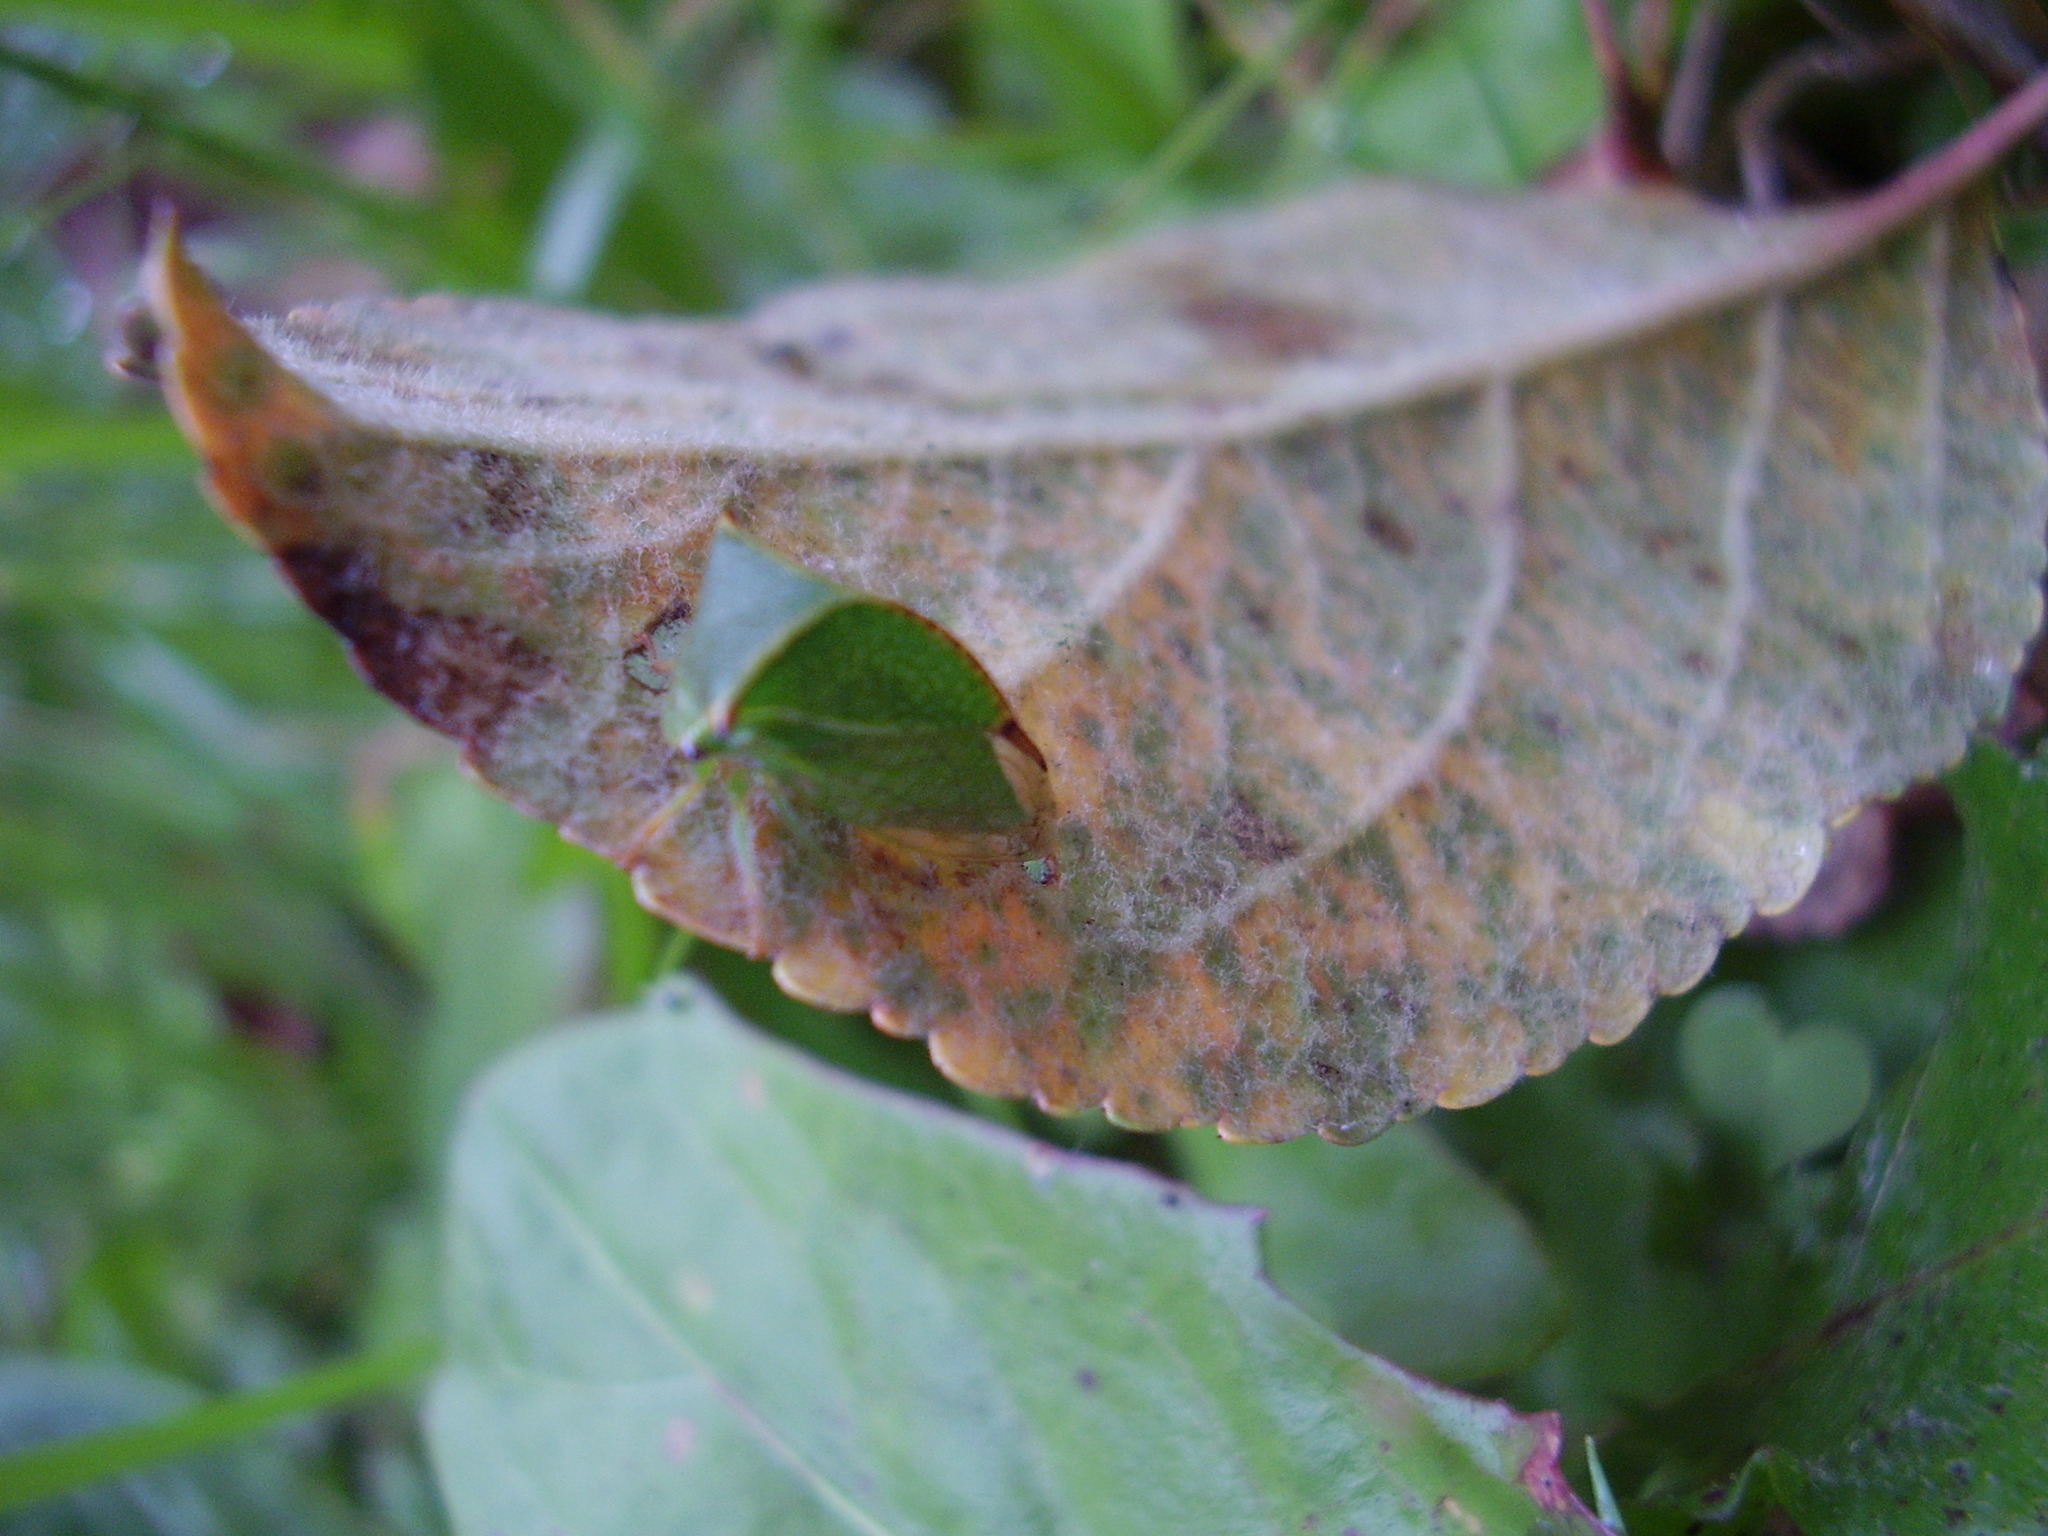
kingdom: Animalia
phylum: Arthropoda
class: Insecta
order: Hemiptera
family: Membracidae
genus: Stictocephala
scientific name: Stictocephala bisonia
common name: American buffalo treehopper
